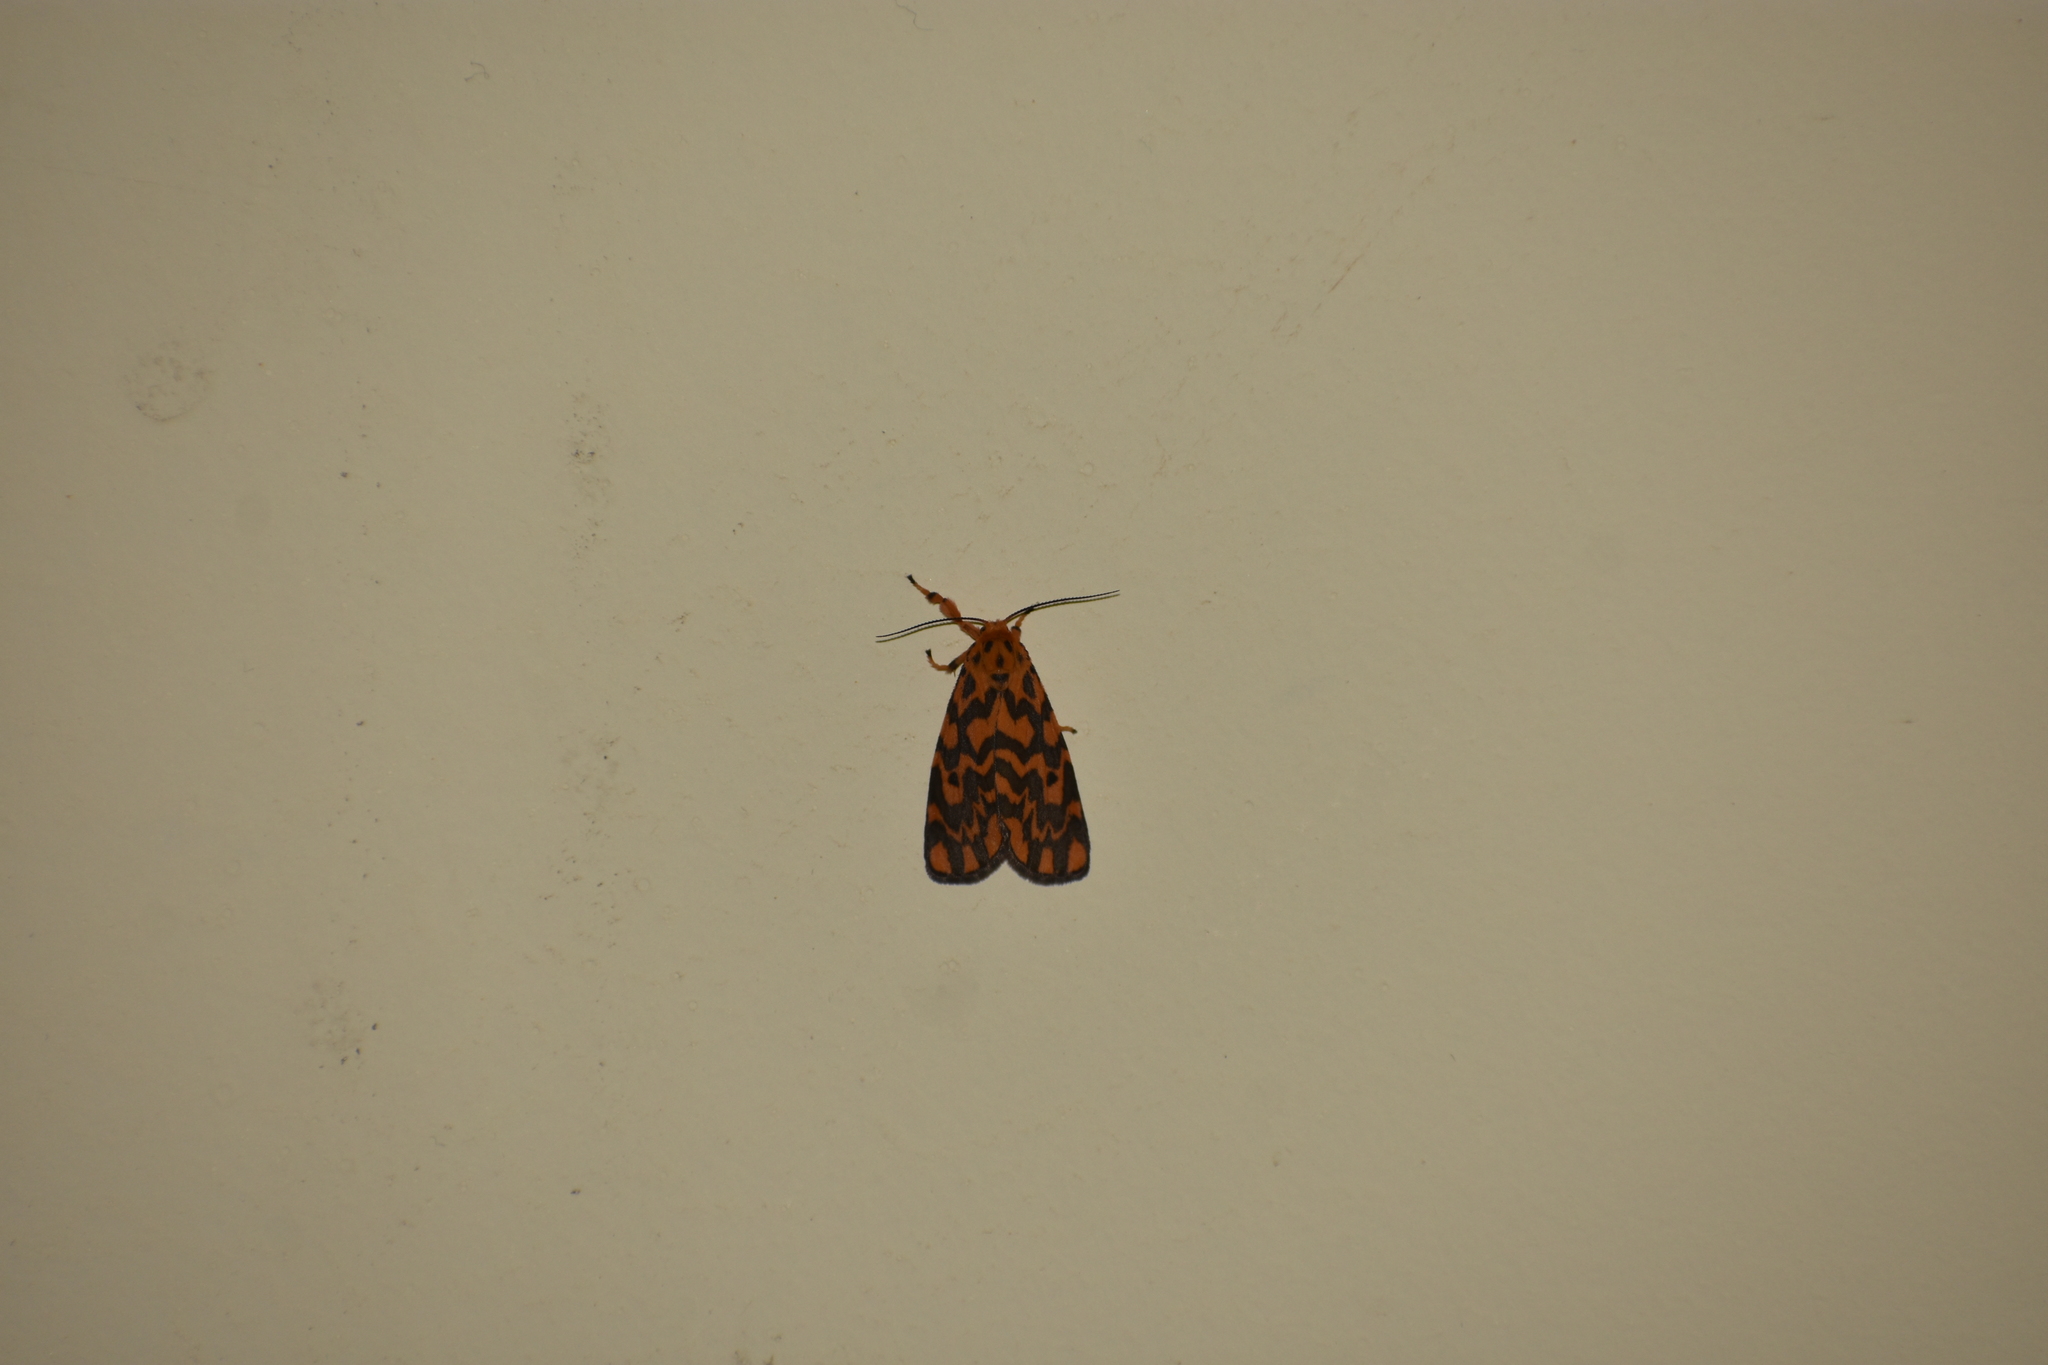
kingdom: Animalia
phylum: Arthropoda
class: Insecta
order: Lepidoptera
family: Erebidae
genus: Nepita
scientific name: Nepita conferta
